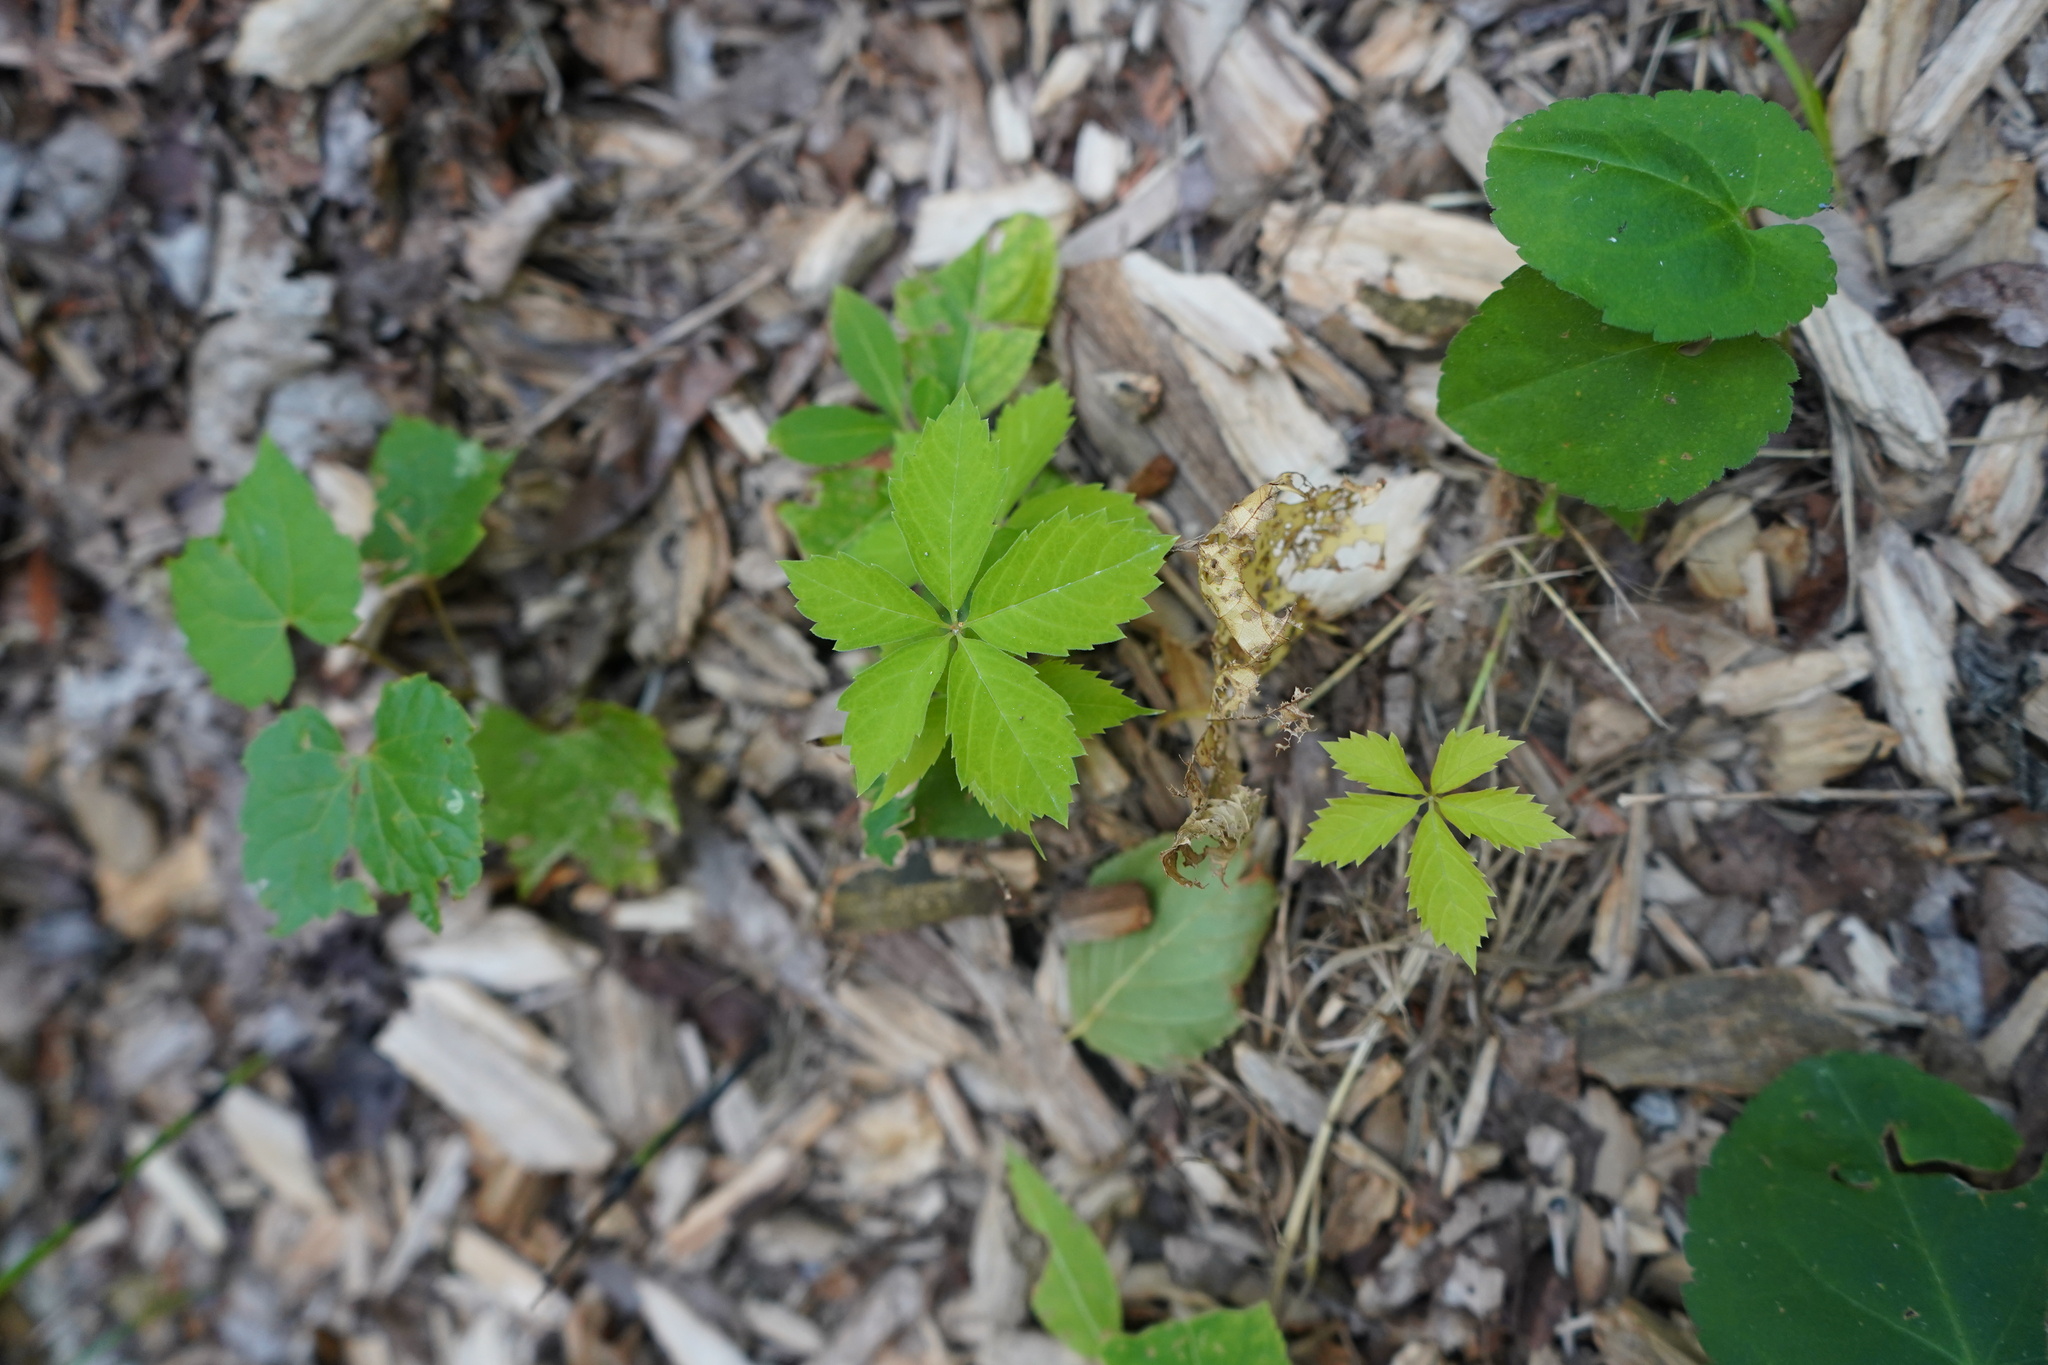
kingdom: Plantae
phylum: Tracheophyta
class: Magnoliopsida
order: Vitales
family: Vitaceae
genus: Parthenocissus
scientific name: Parthenocissus quinquefolia
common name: Virginia-creeper
